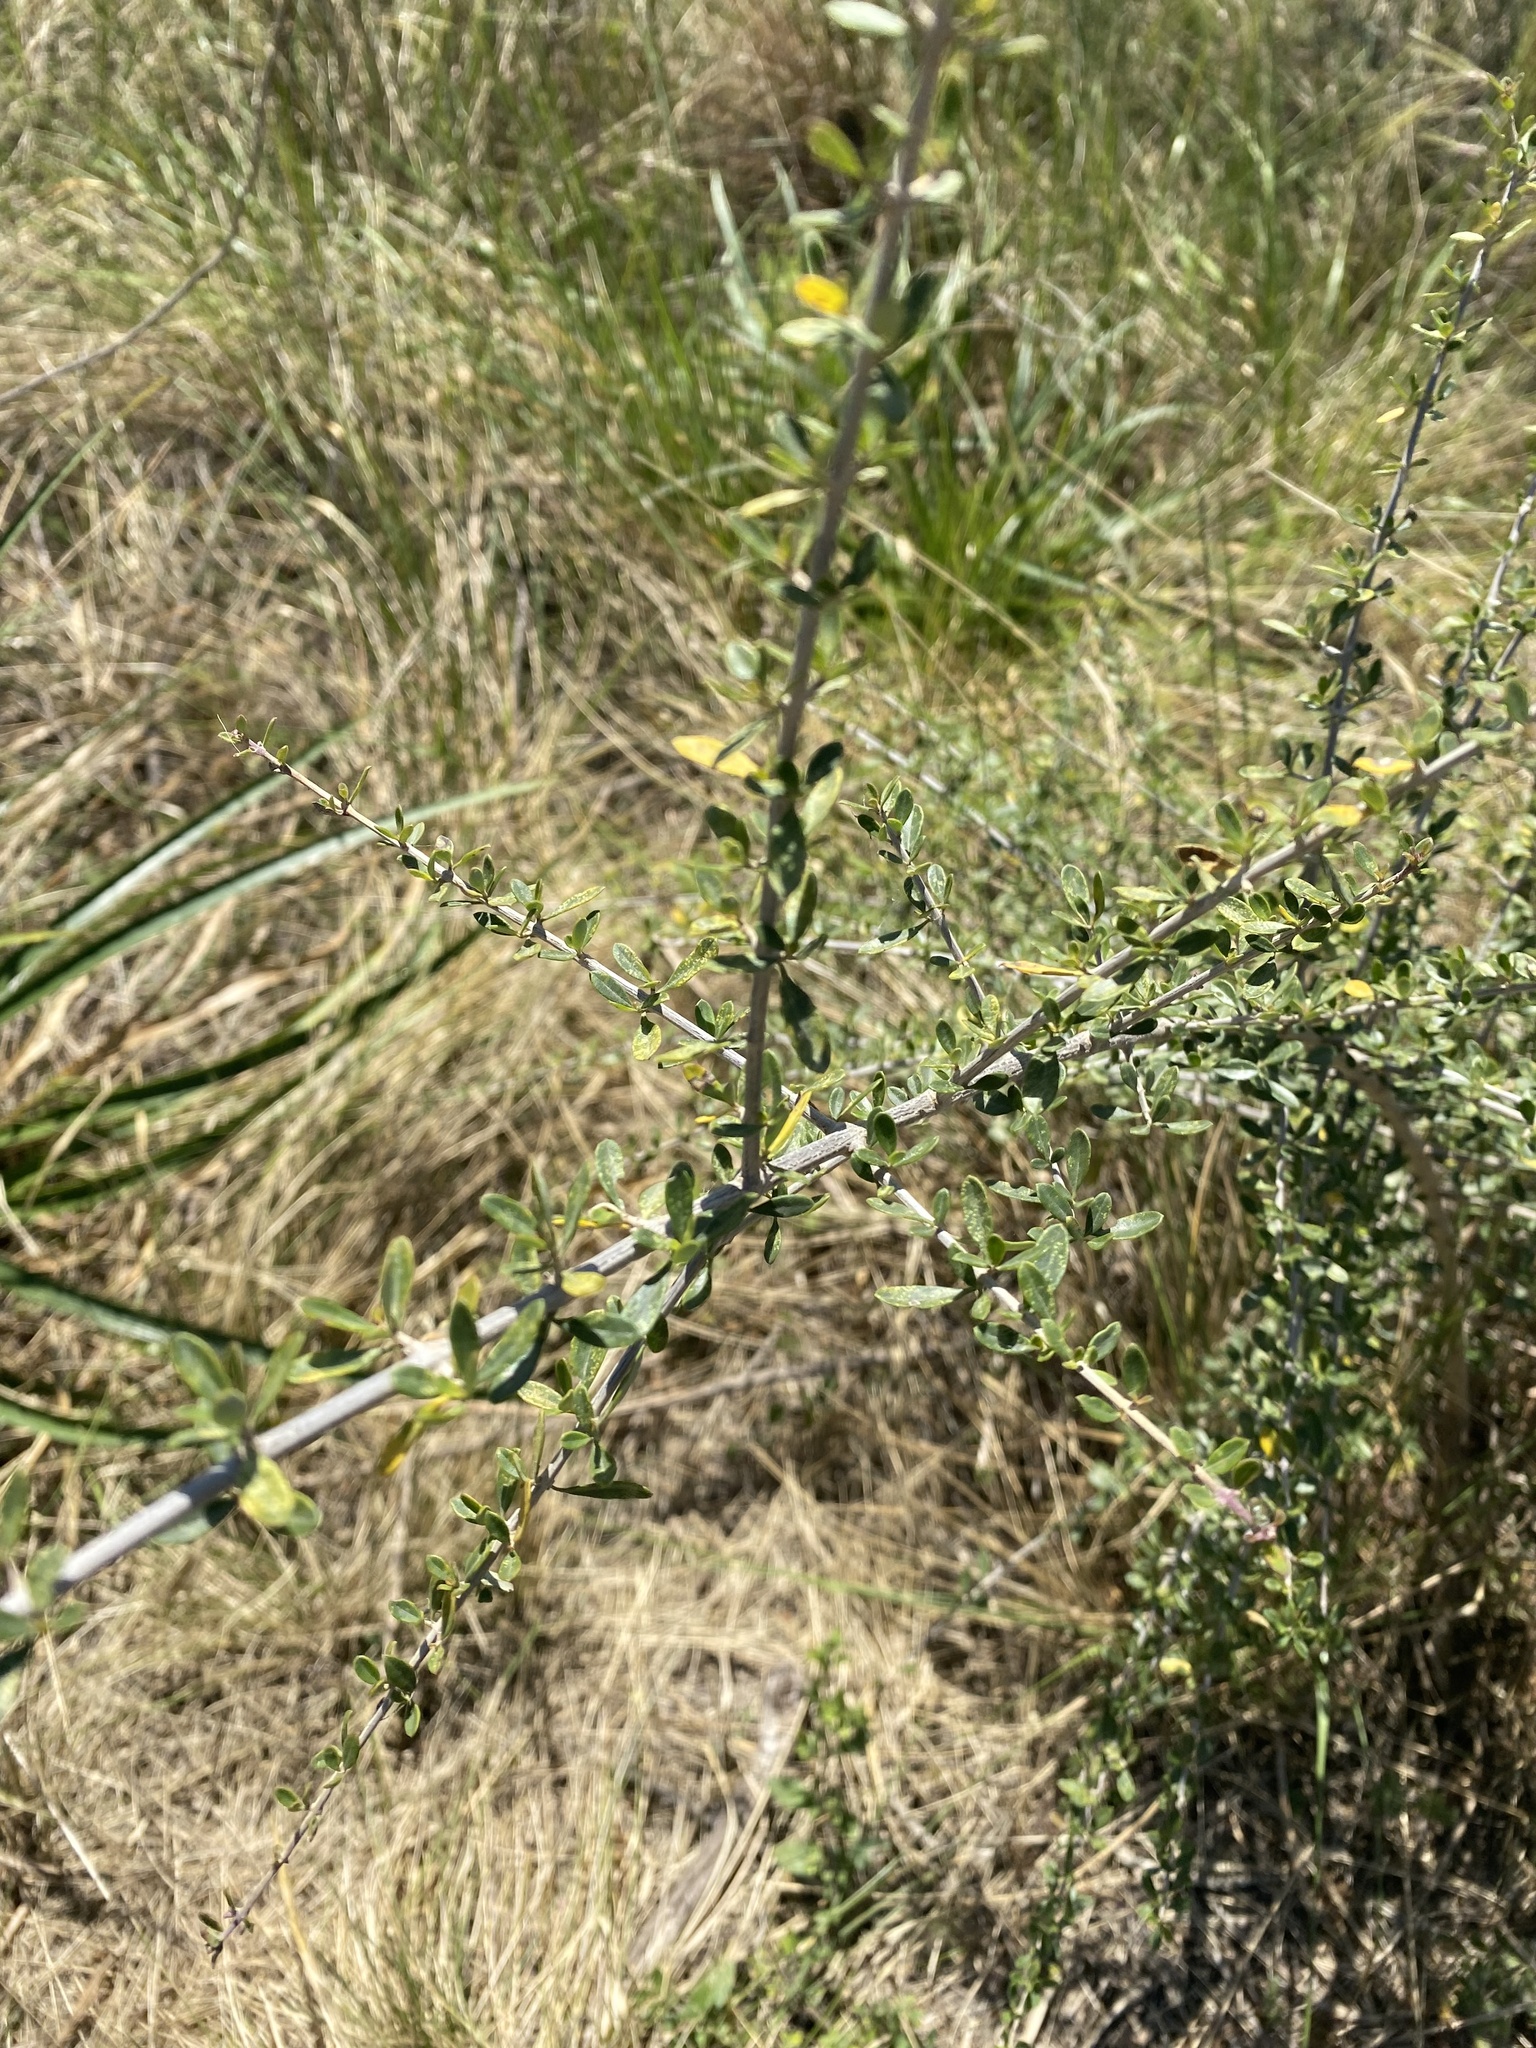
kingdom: Plantae
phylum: Tracheophyta
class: Magnoliopsida
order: Lamiales
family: Verbenaceae
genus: Aloysia
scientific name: Aloysia gratissima
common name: Common bee-brush
